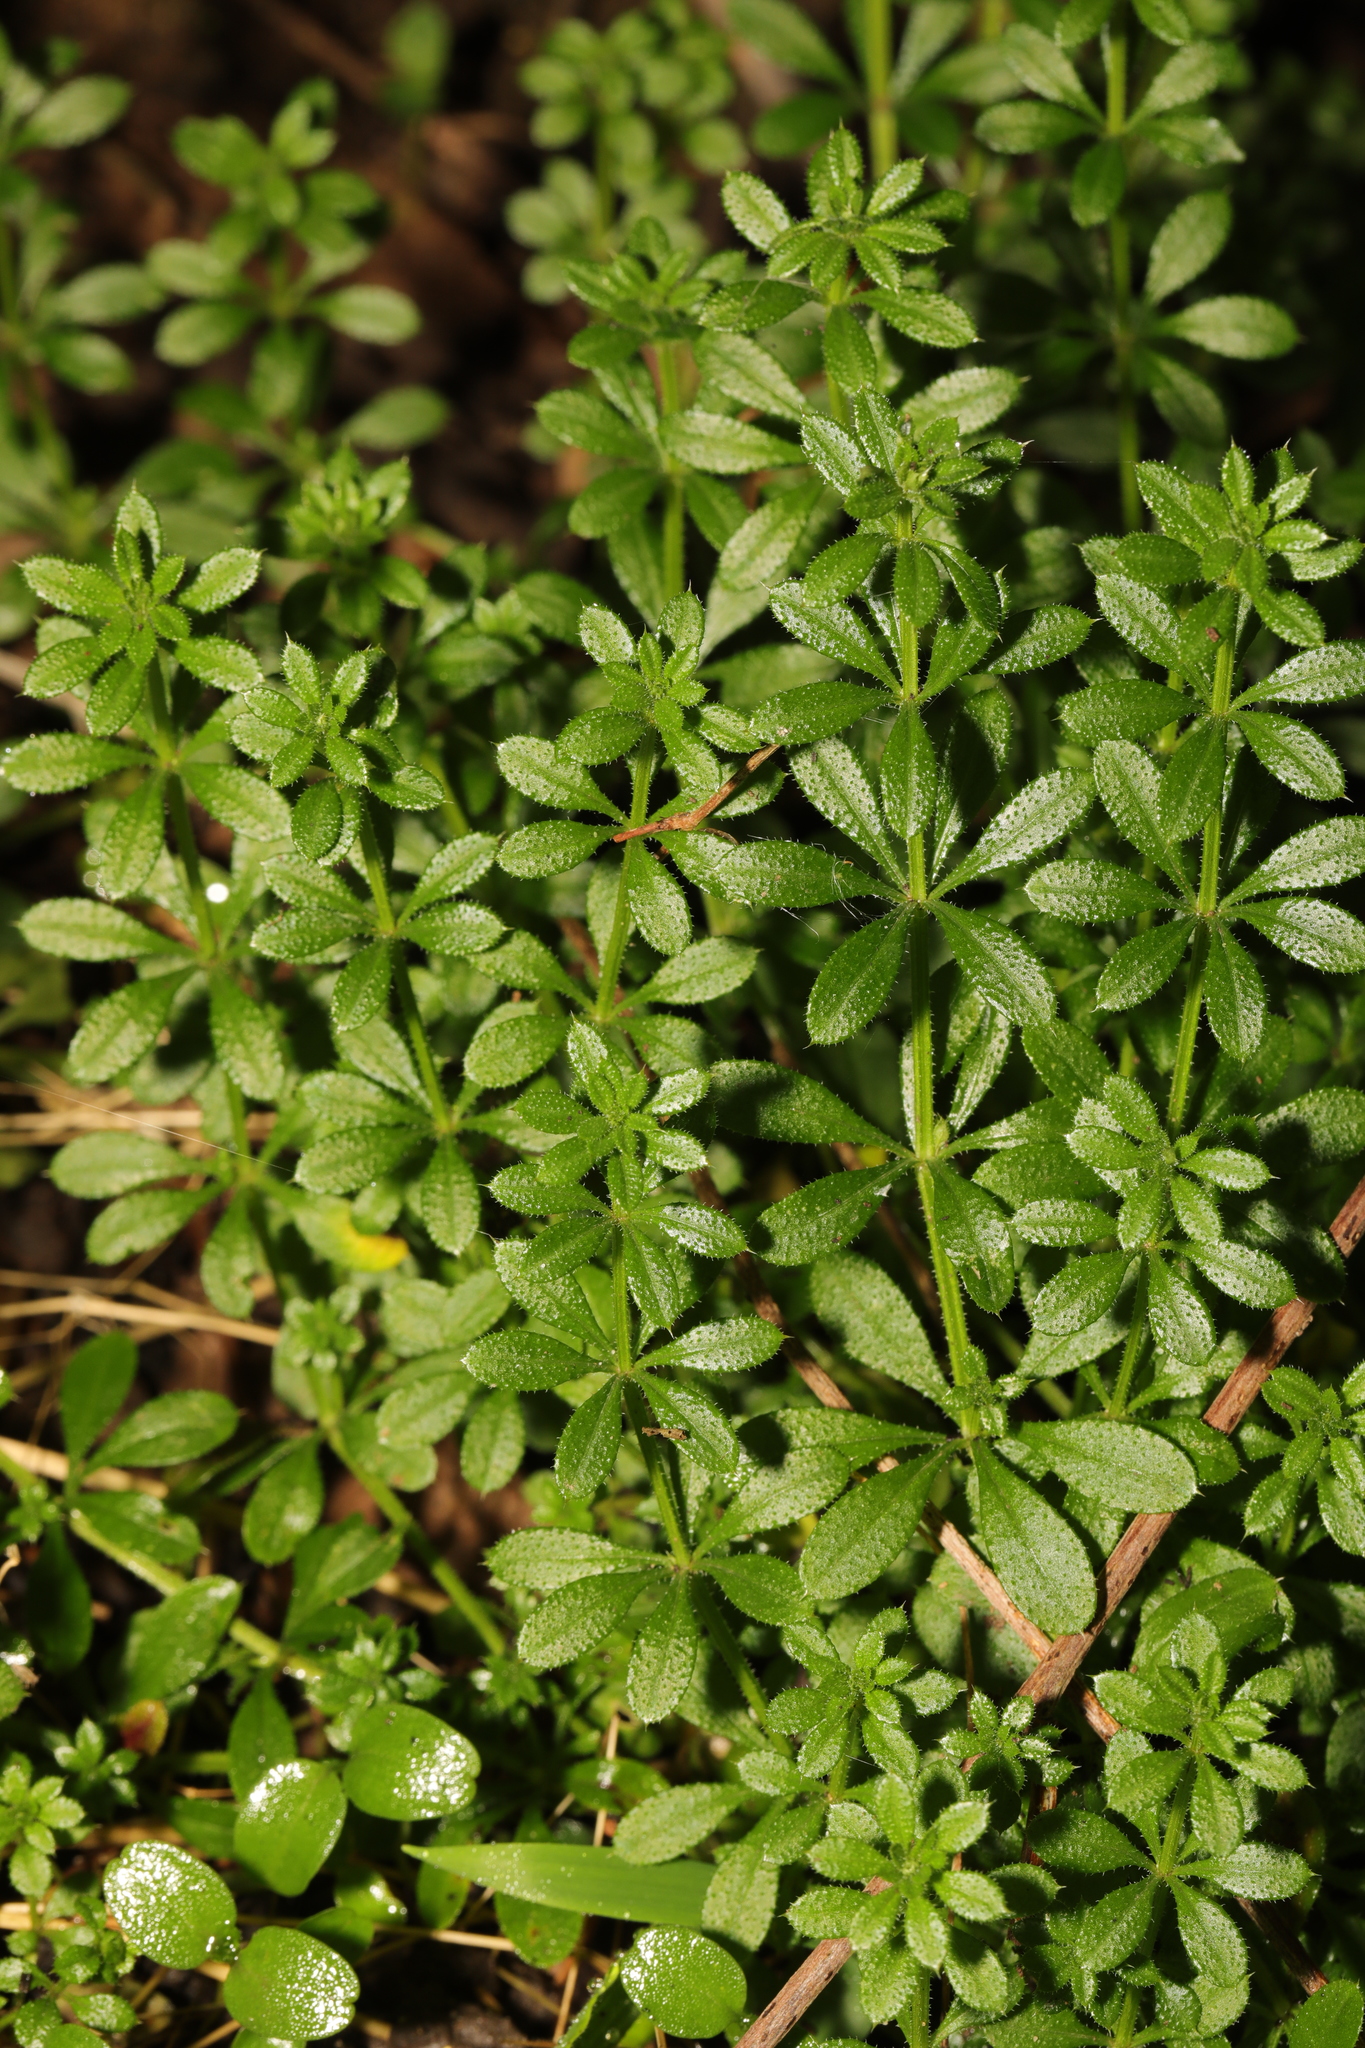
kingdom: Plantae
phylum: Tracheophyta
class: Magnoliopsida
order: Gentianales
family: Rubiaceae
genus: Galium
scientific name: Galium aparine
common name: Cleavers
